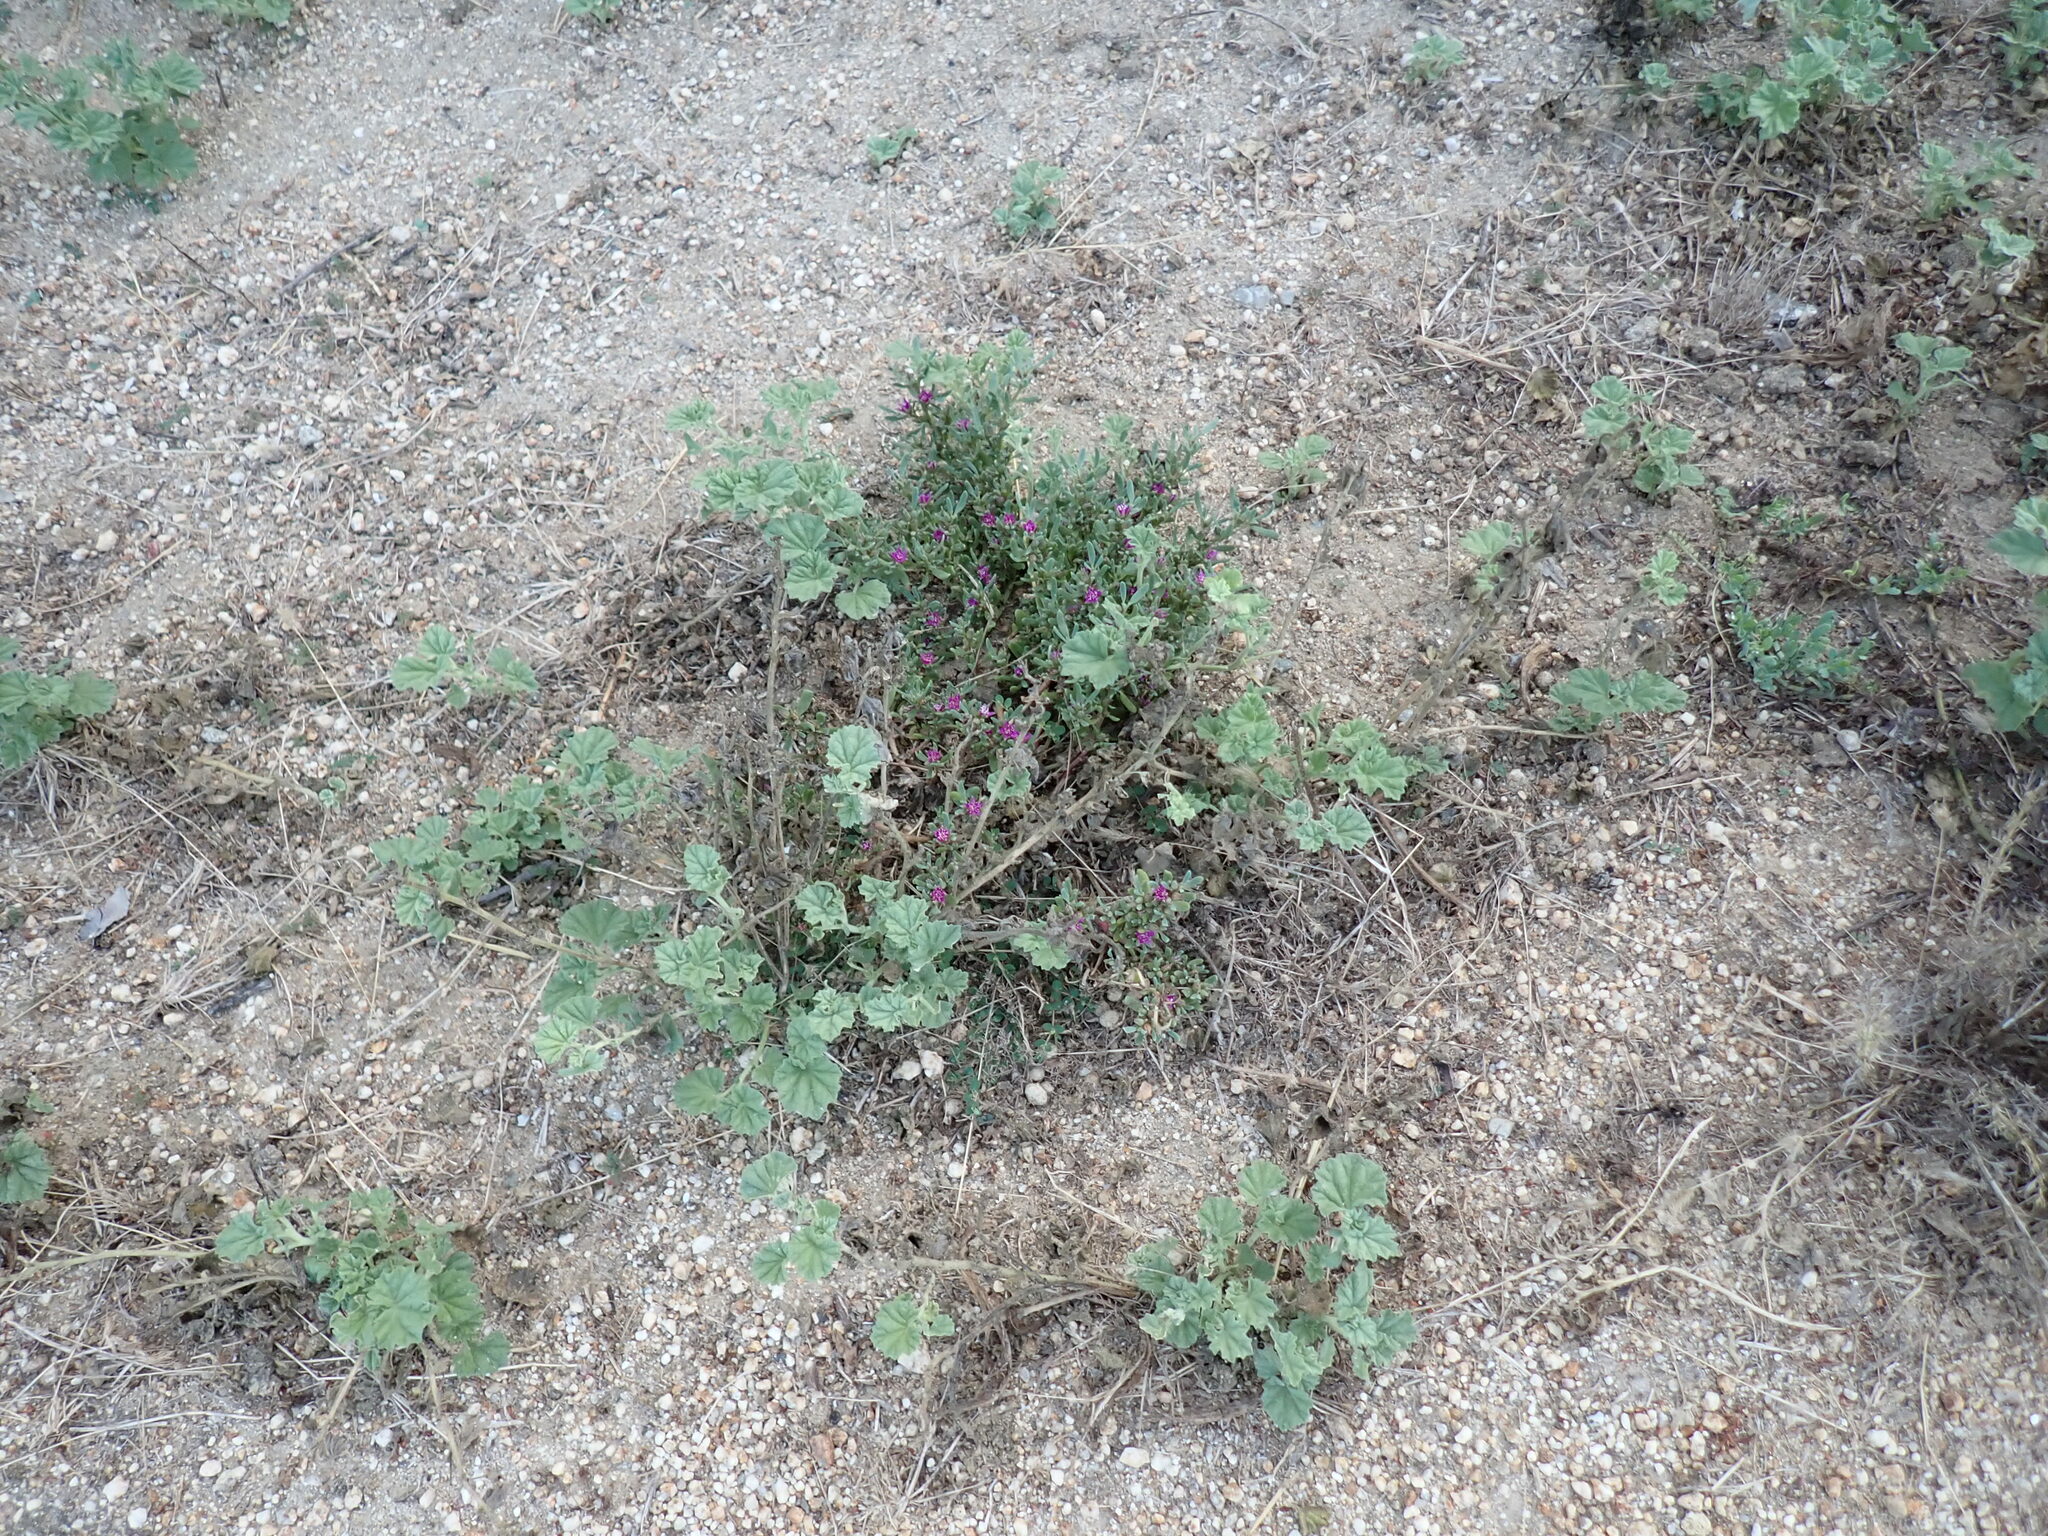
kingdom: Plantae
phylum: Tracheophyta
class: Magnoliopsida
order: Caryophyllales
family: Aizoaceae
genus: Sesuvium
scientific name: Sesuvium revolutifolium
